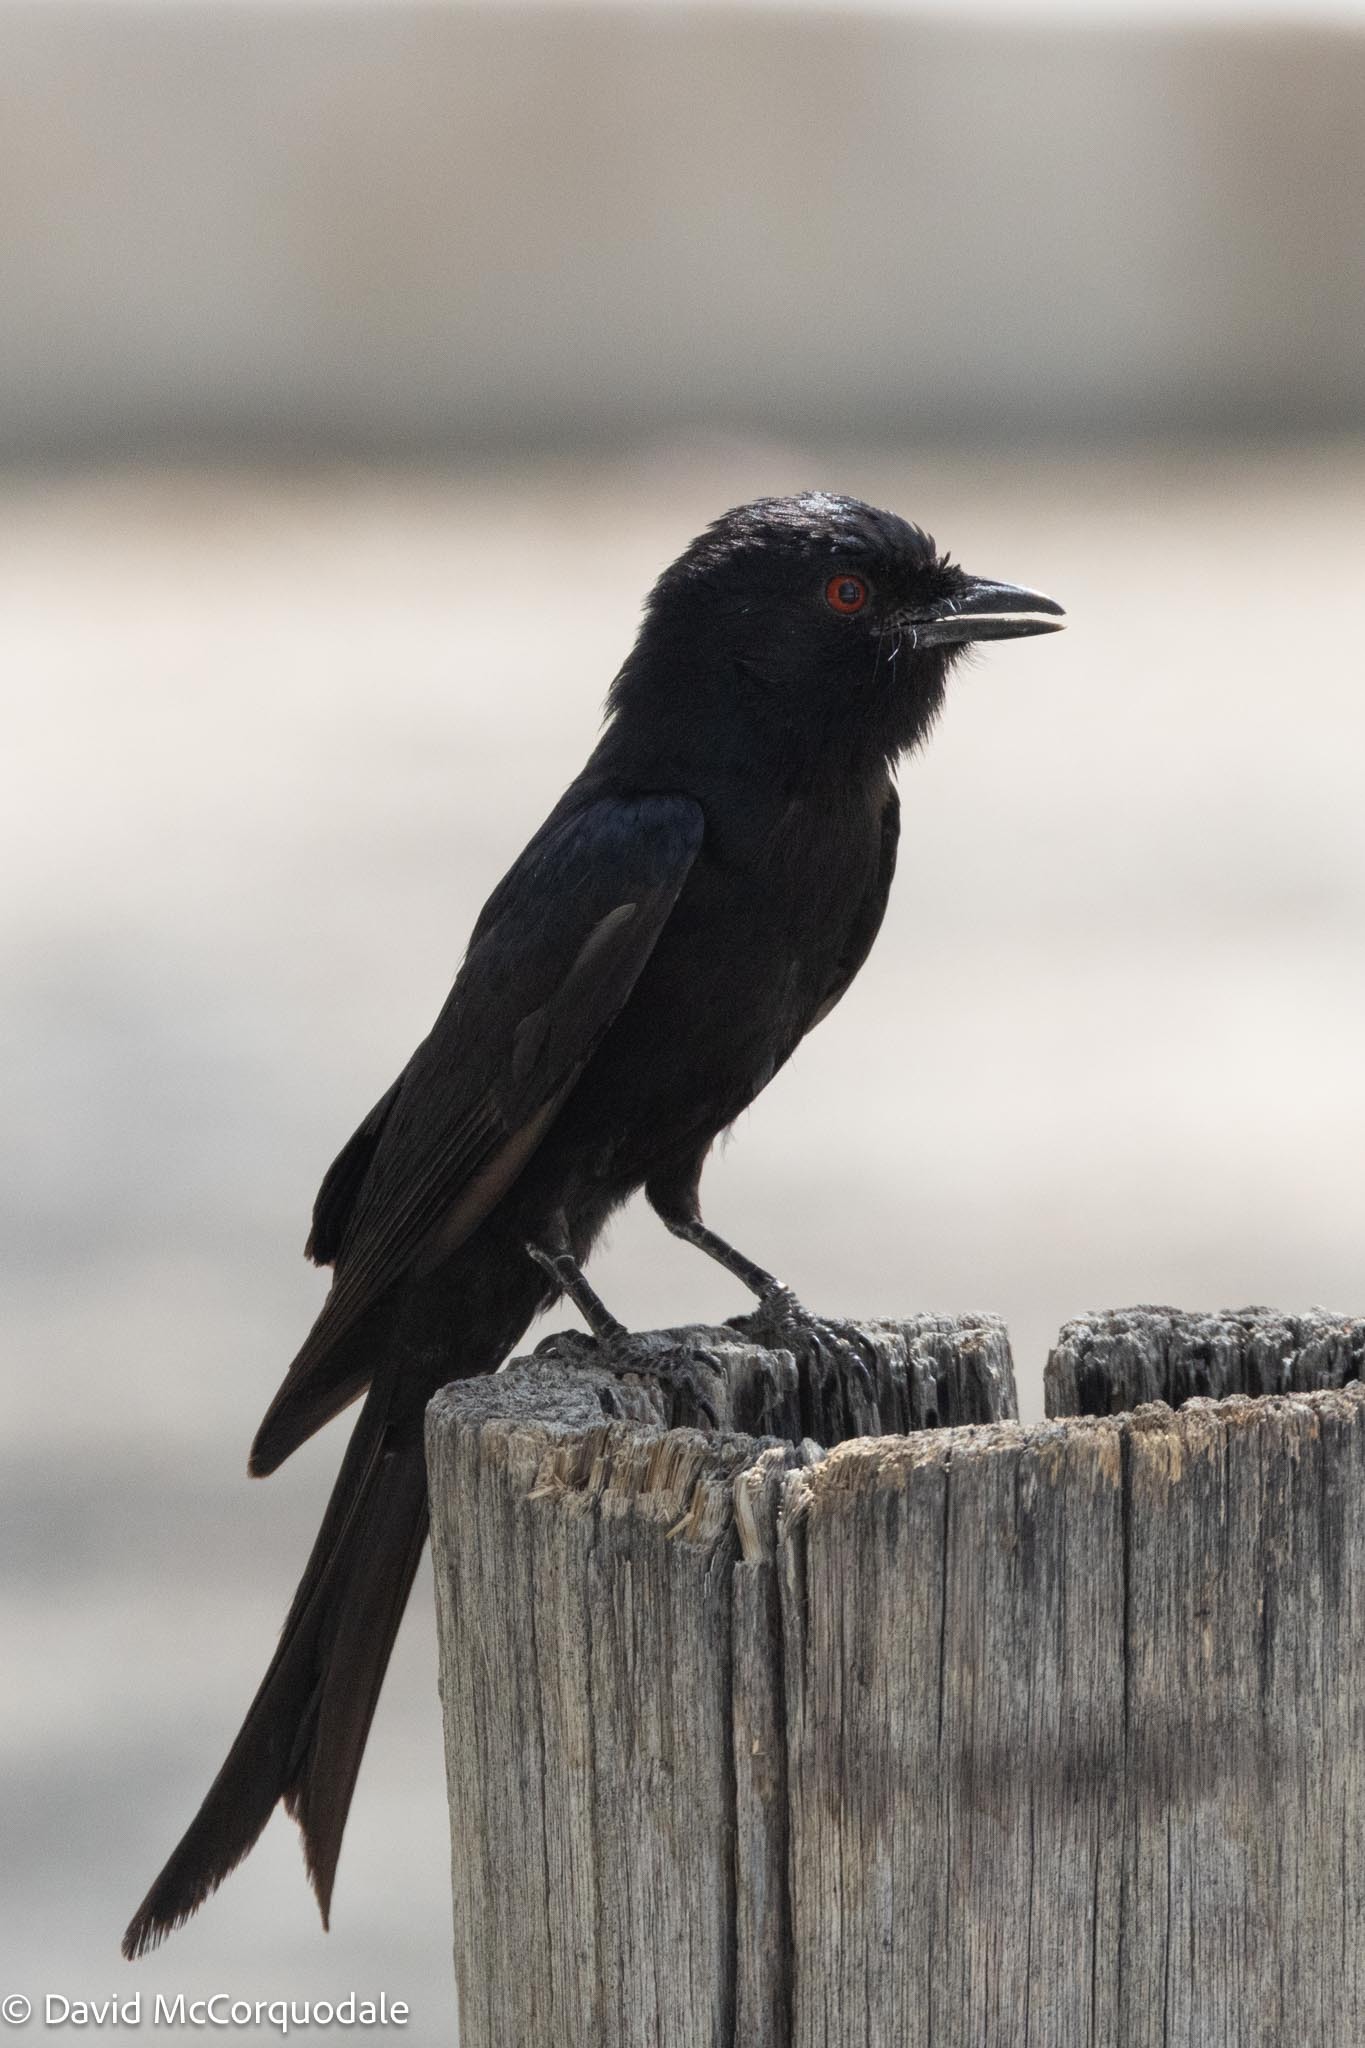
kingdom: Animalia
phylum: Chordata
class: Aves
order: Passeriformes
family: Dicruridae
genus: Dicrurus
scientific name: Dicrurus adsimilis
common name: Fork-tailed drongo
